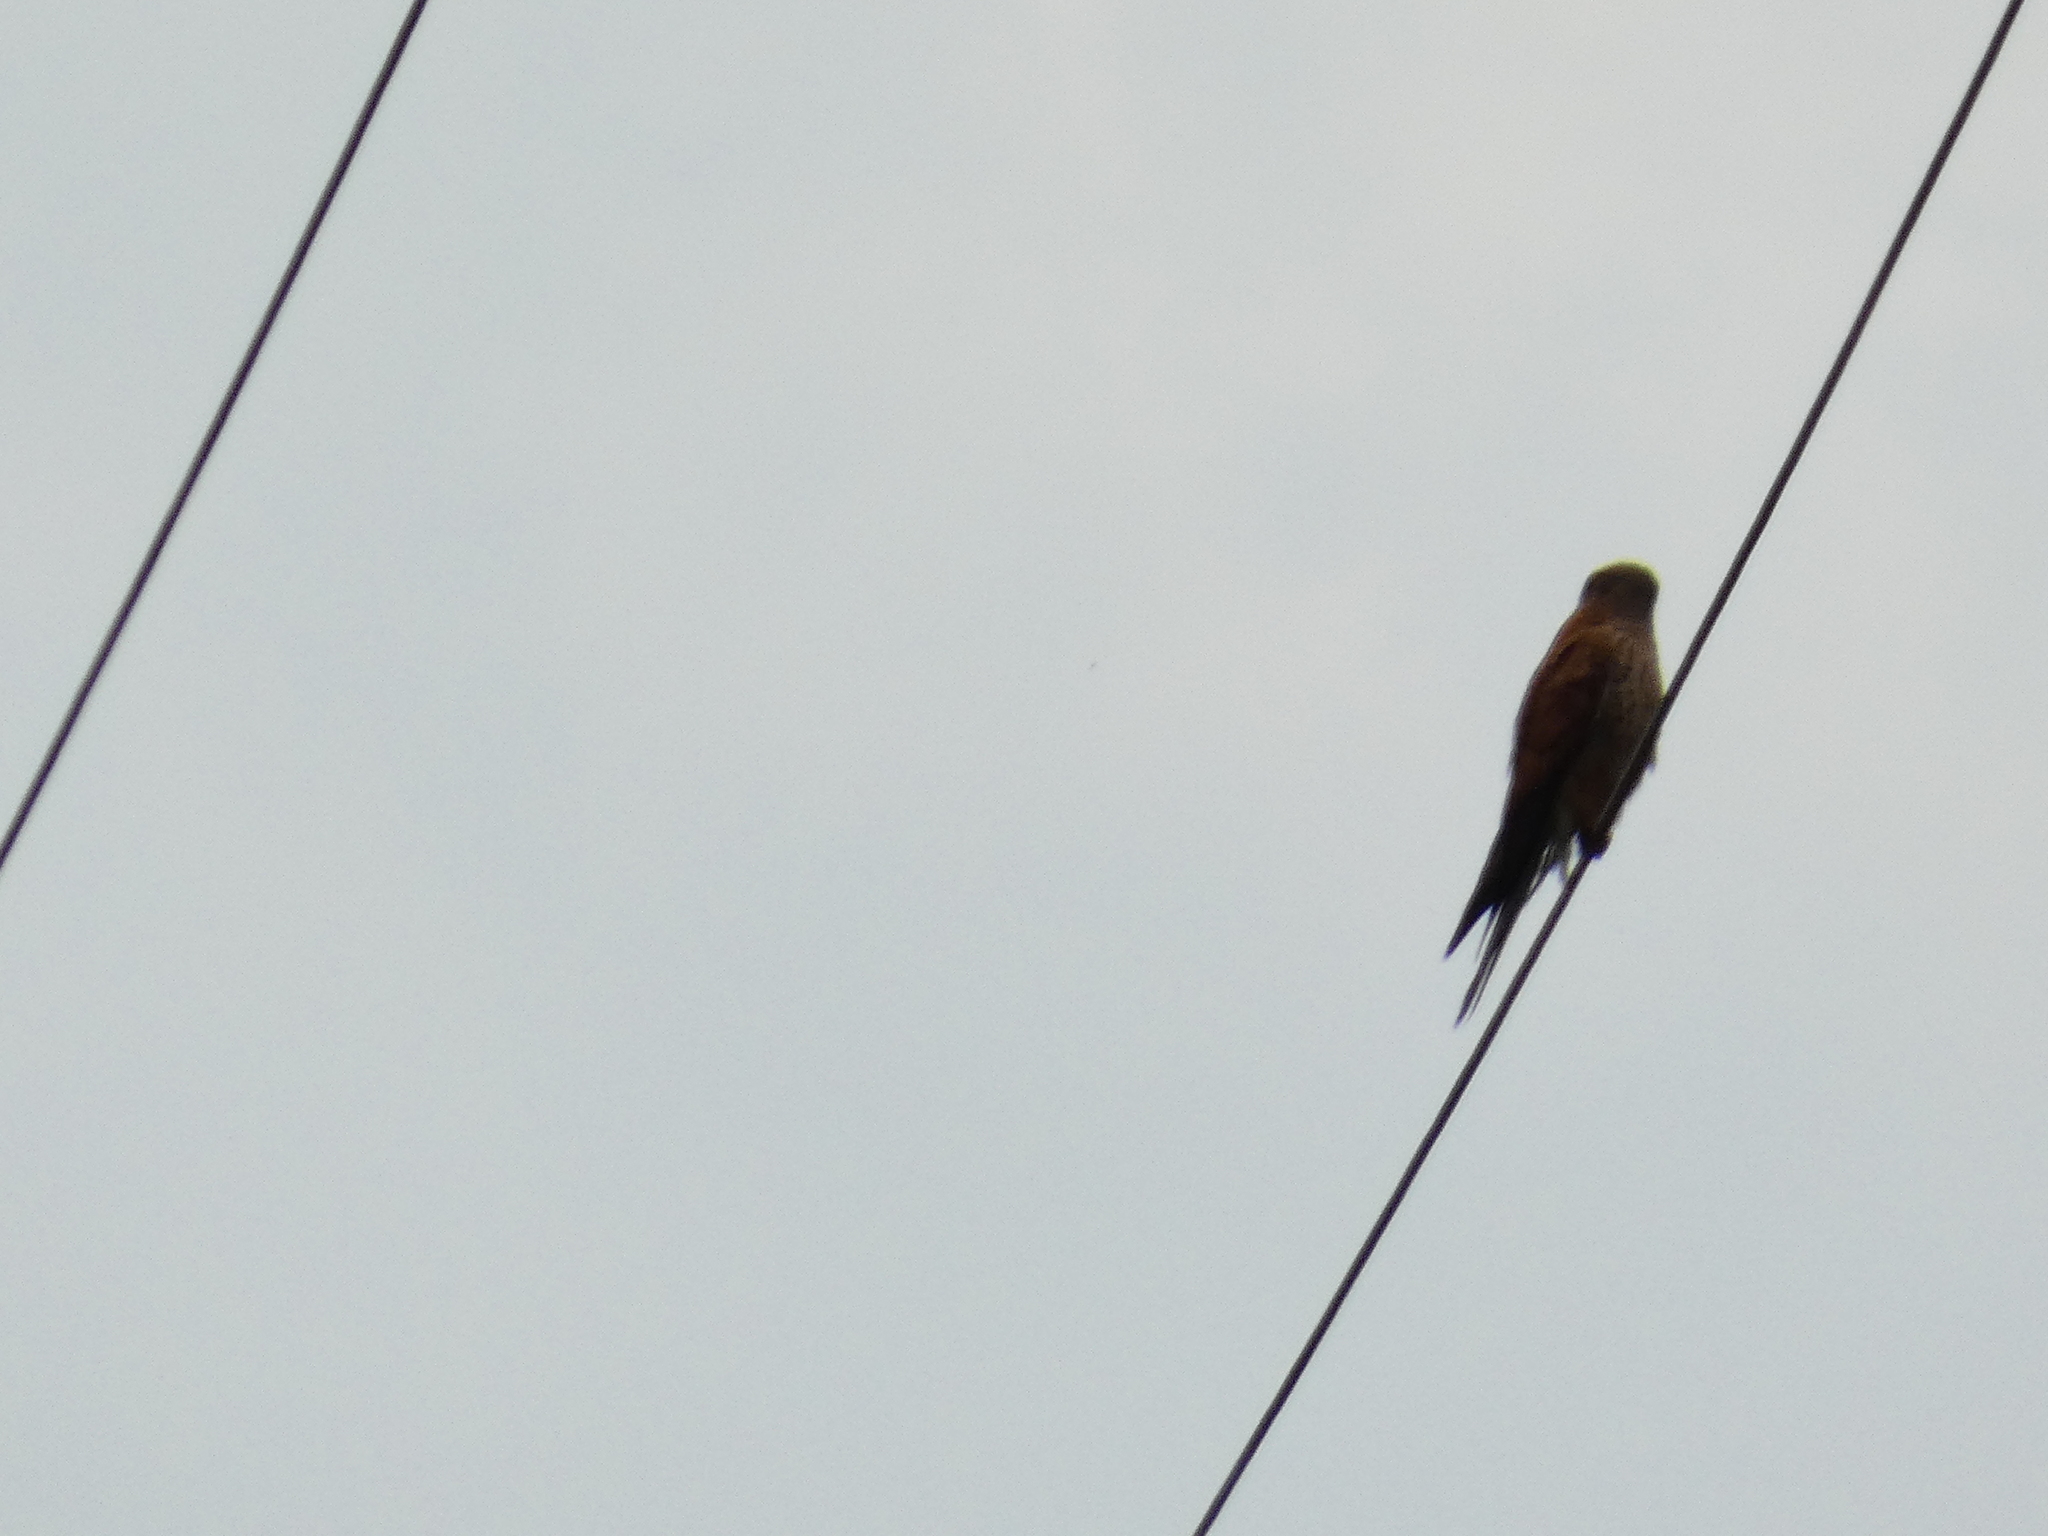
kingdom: Animalia
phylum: Chordata
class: Aves
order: Falconiformes
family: Falconidae
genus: Falco
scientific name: Falco tinnunculus
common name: Common kestrel
